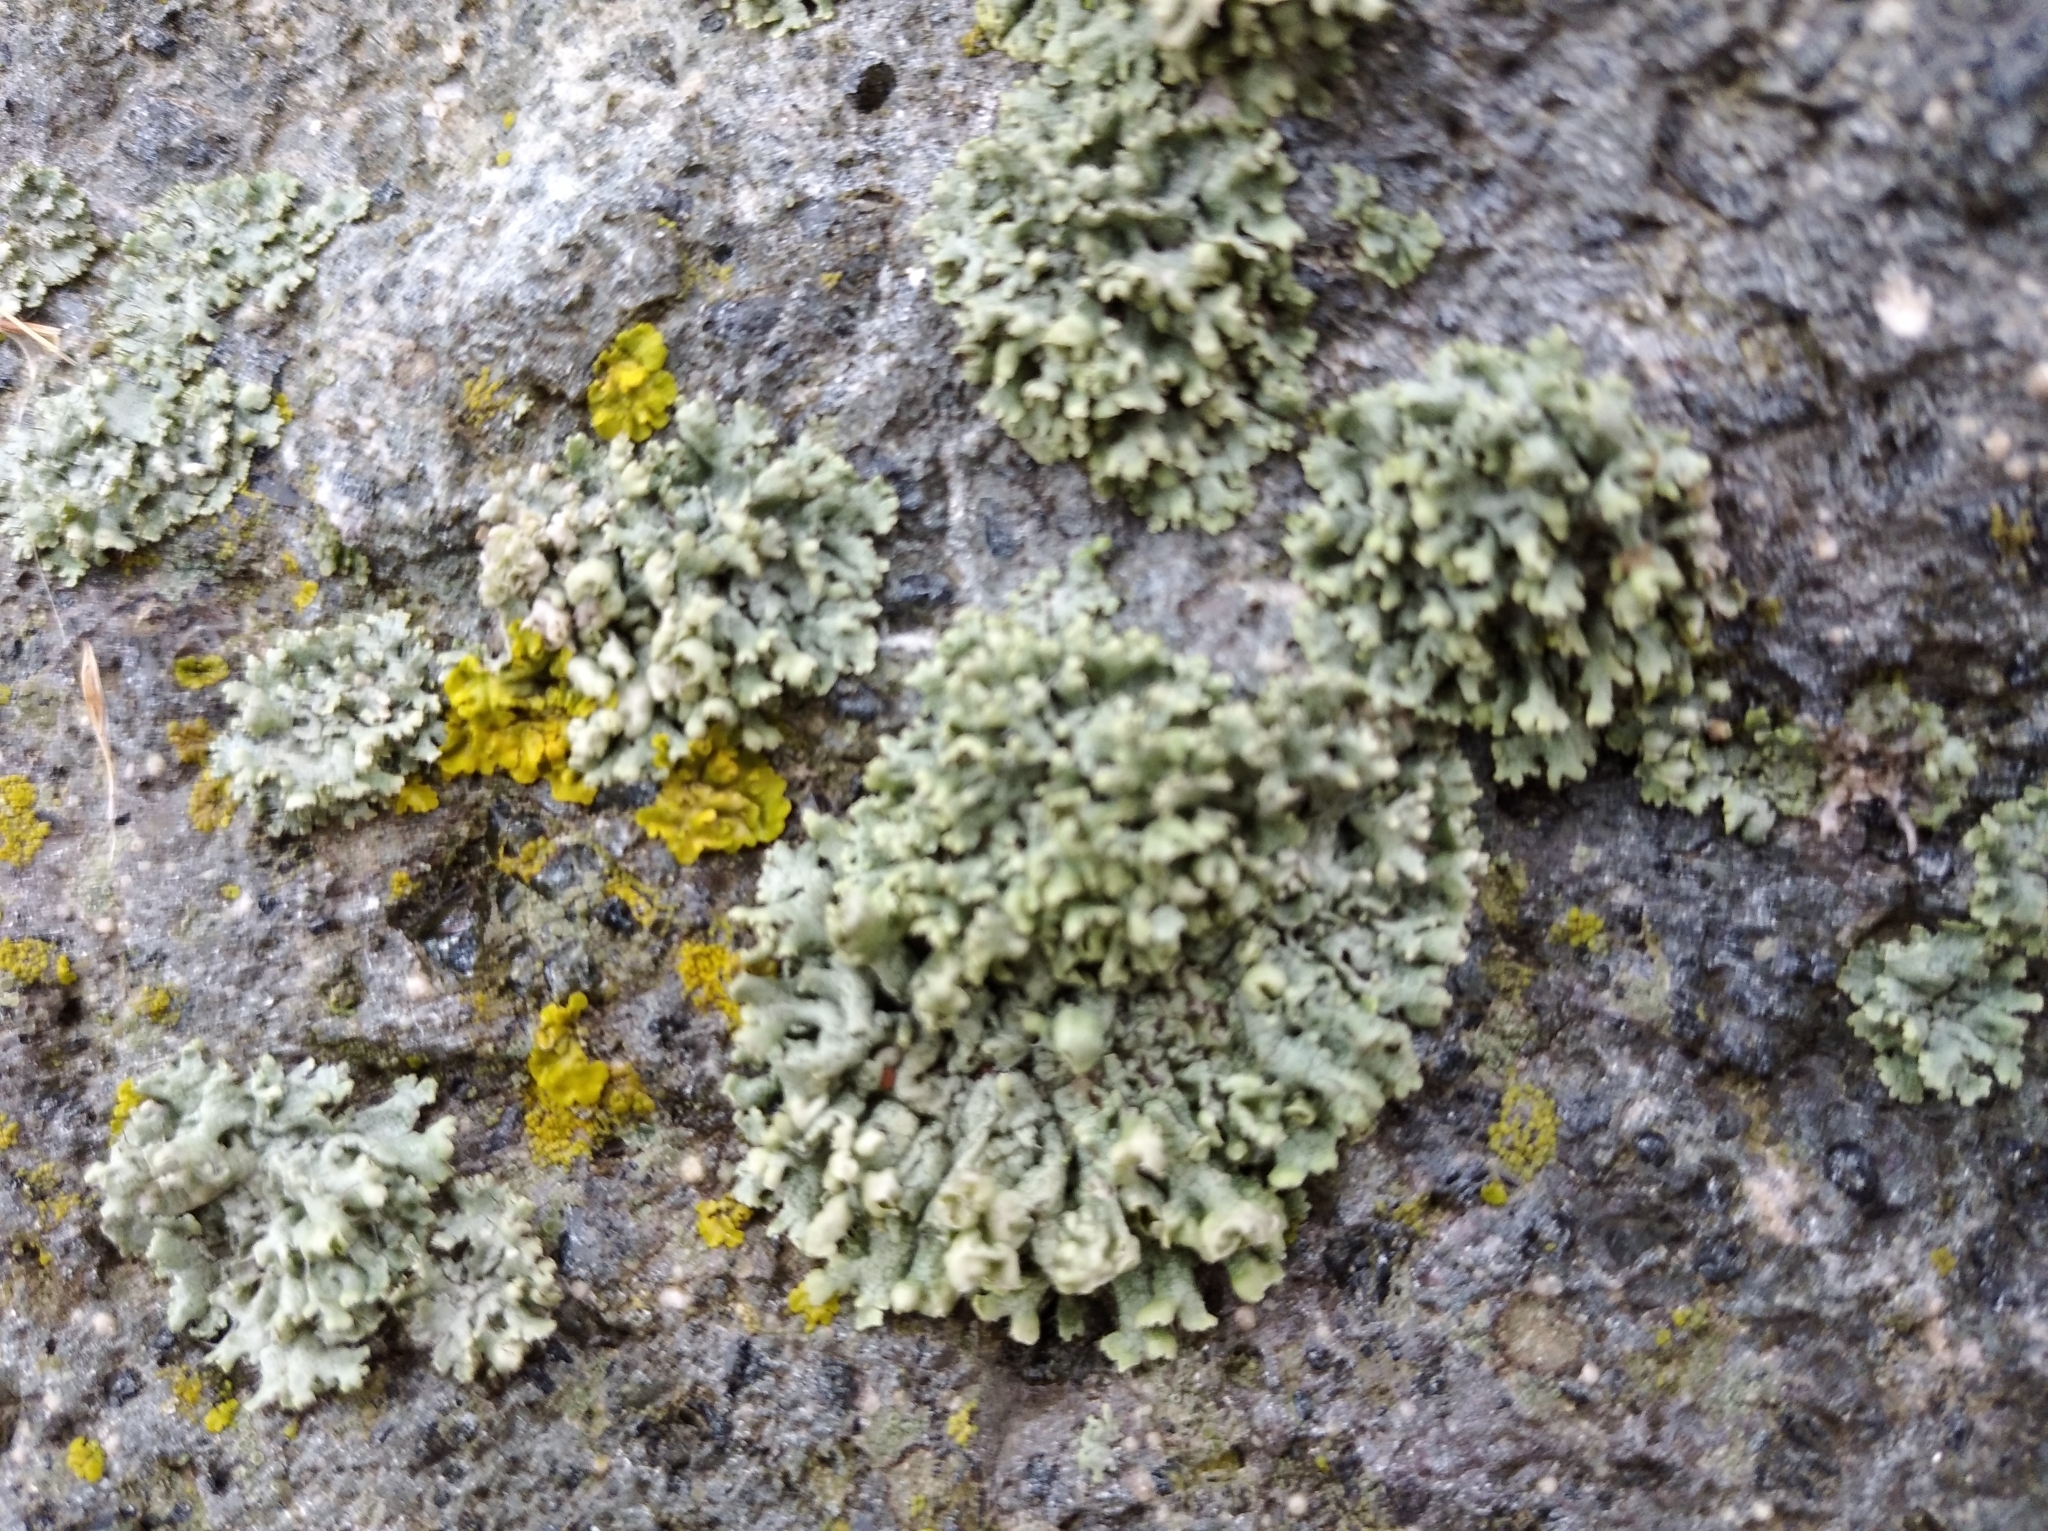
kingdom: Fungi
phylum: Ascomycota
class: Lecanoromycetes
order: Caliciales
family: Physciaceae
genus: Physcia
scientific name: Physcia adscendens
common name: Hooded rosette lichen
